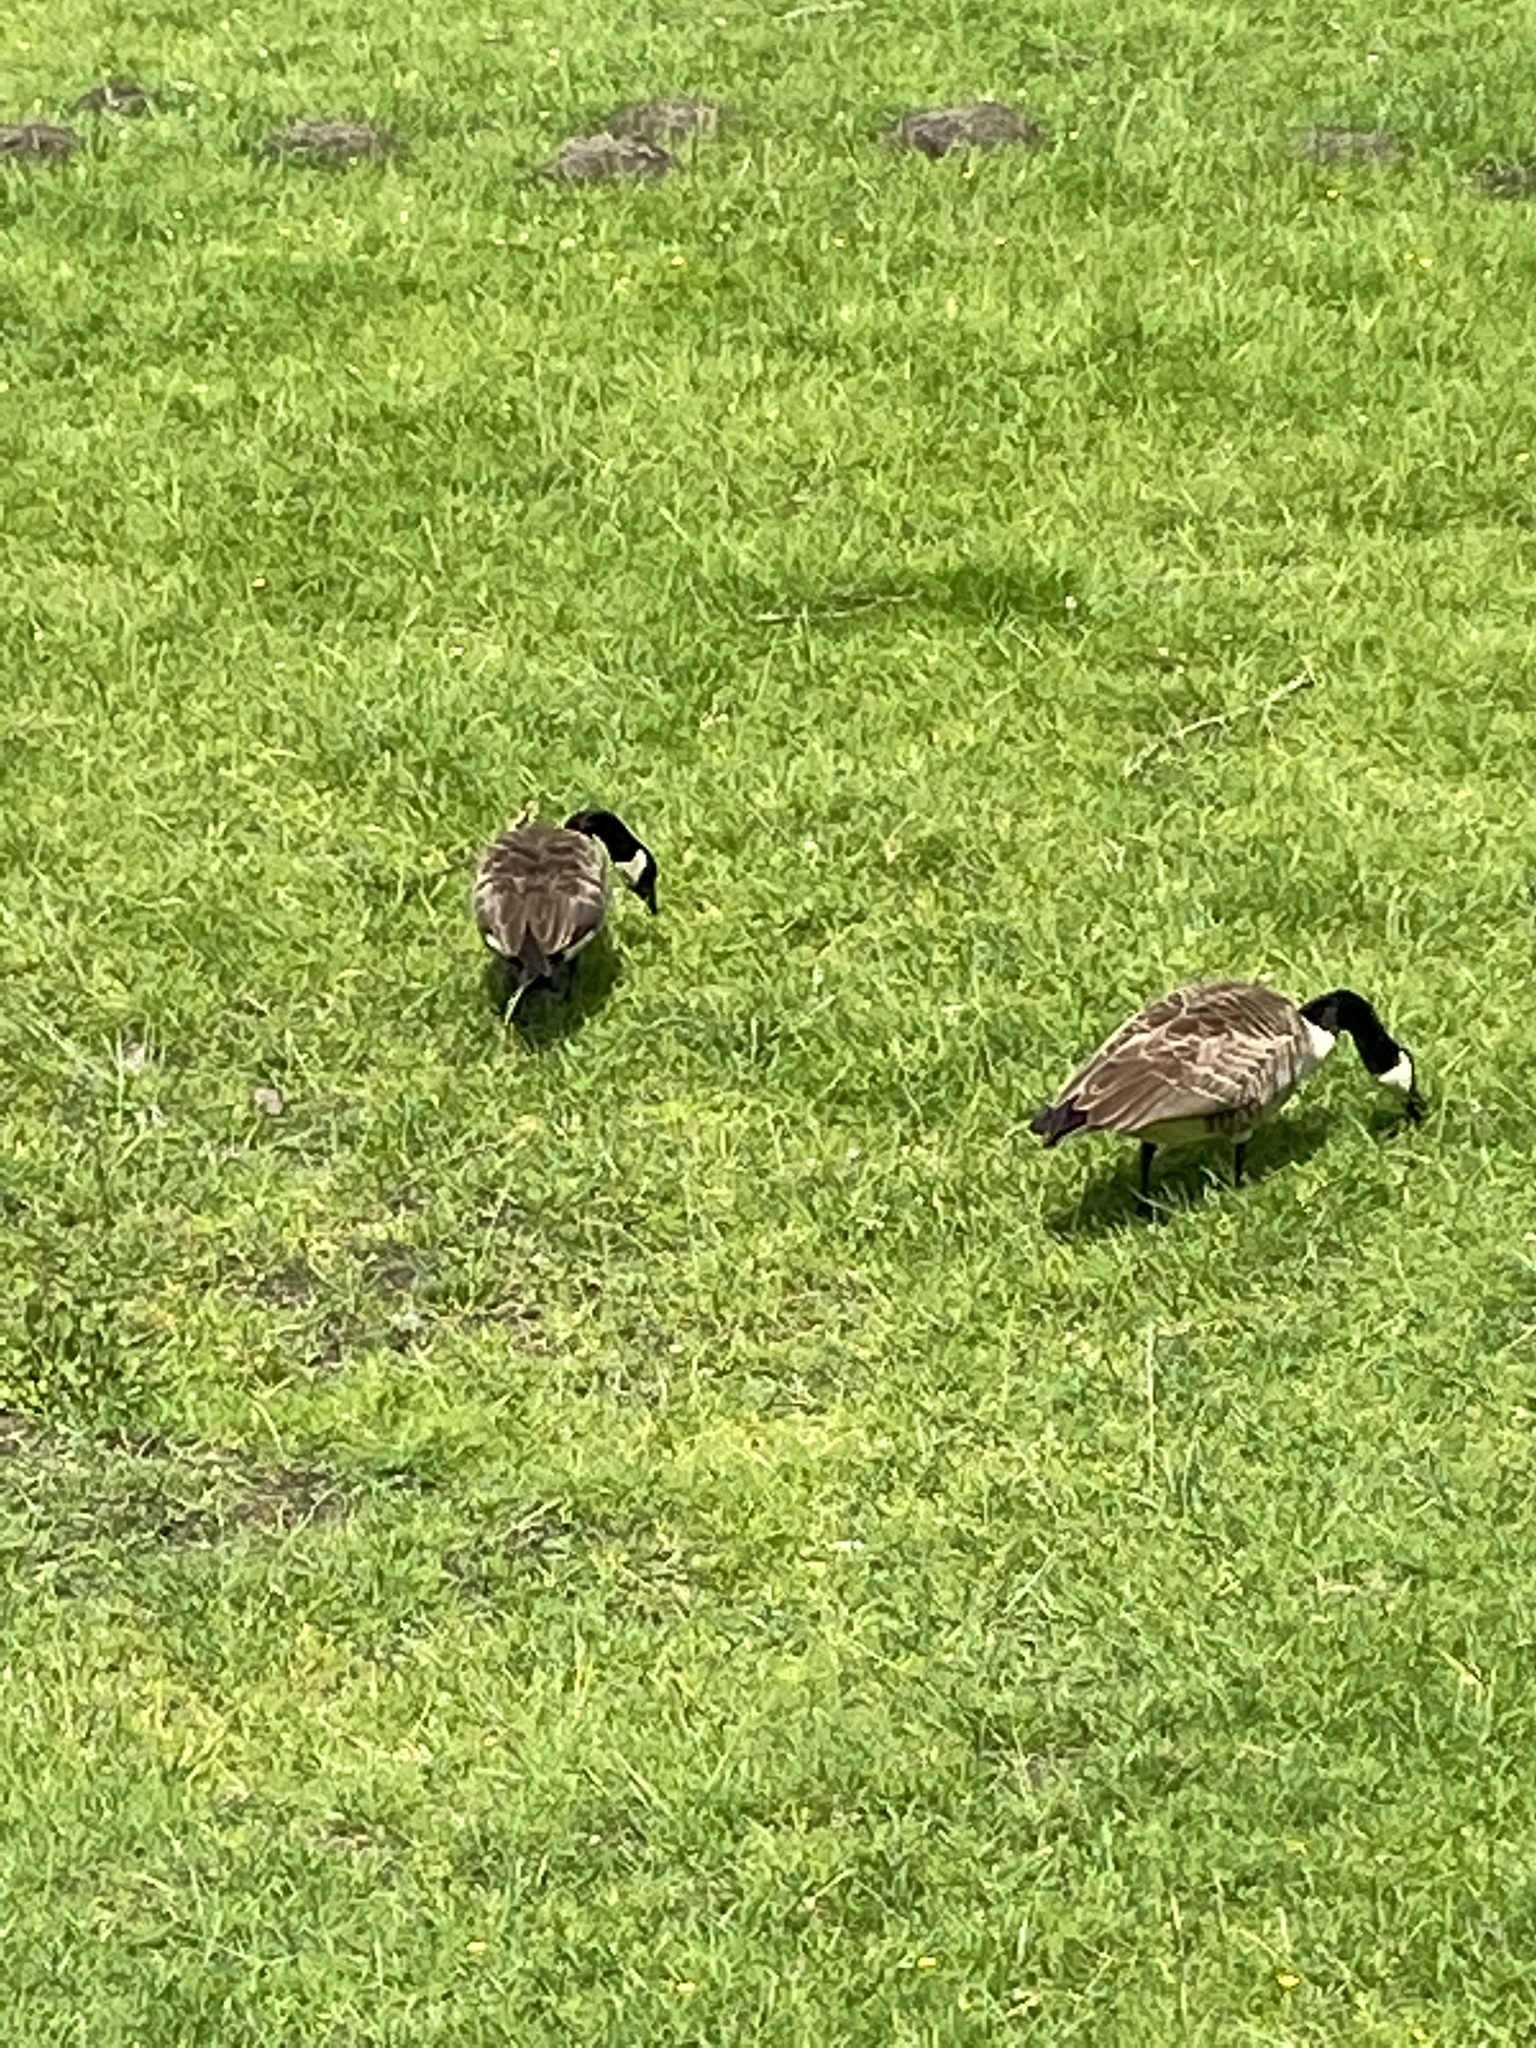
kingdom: Animalia
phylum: Chordata
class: Aves
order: Anseriformes
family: Anatidae
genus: Branta
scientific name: Branta canadensis
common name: Canada goose
